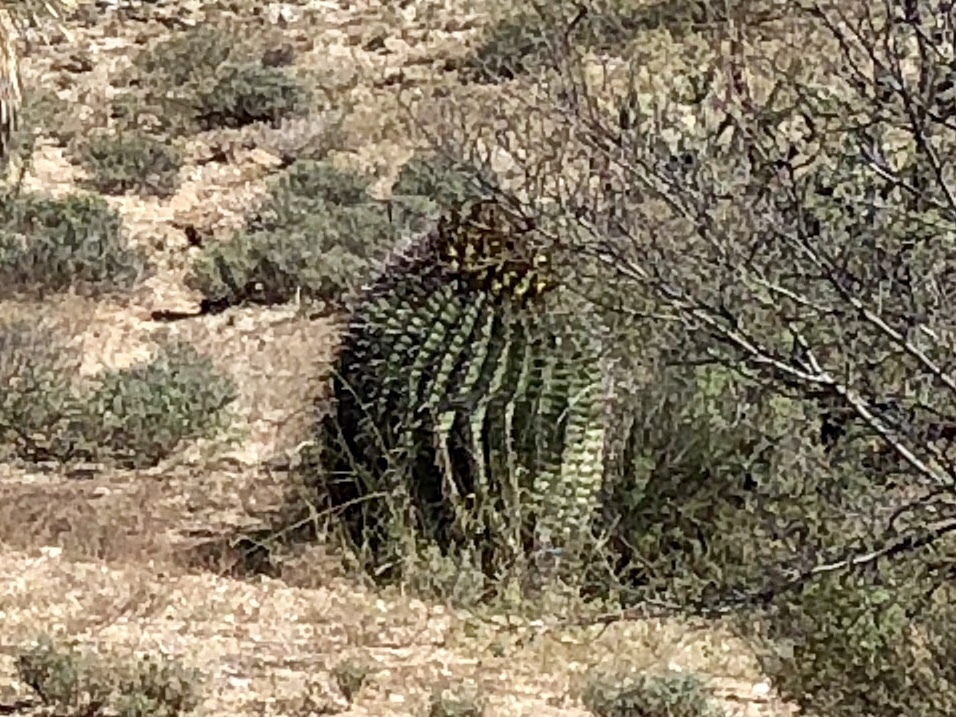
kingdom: Plantae
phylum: Tracheophyta
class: Magnoliopsida
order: Caryophyllales
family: Cactaceae
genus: Ferocactus
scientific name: Ferocactus wislizeni
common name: Candy barrel cactus
